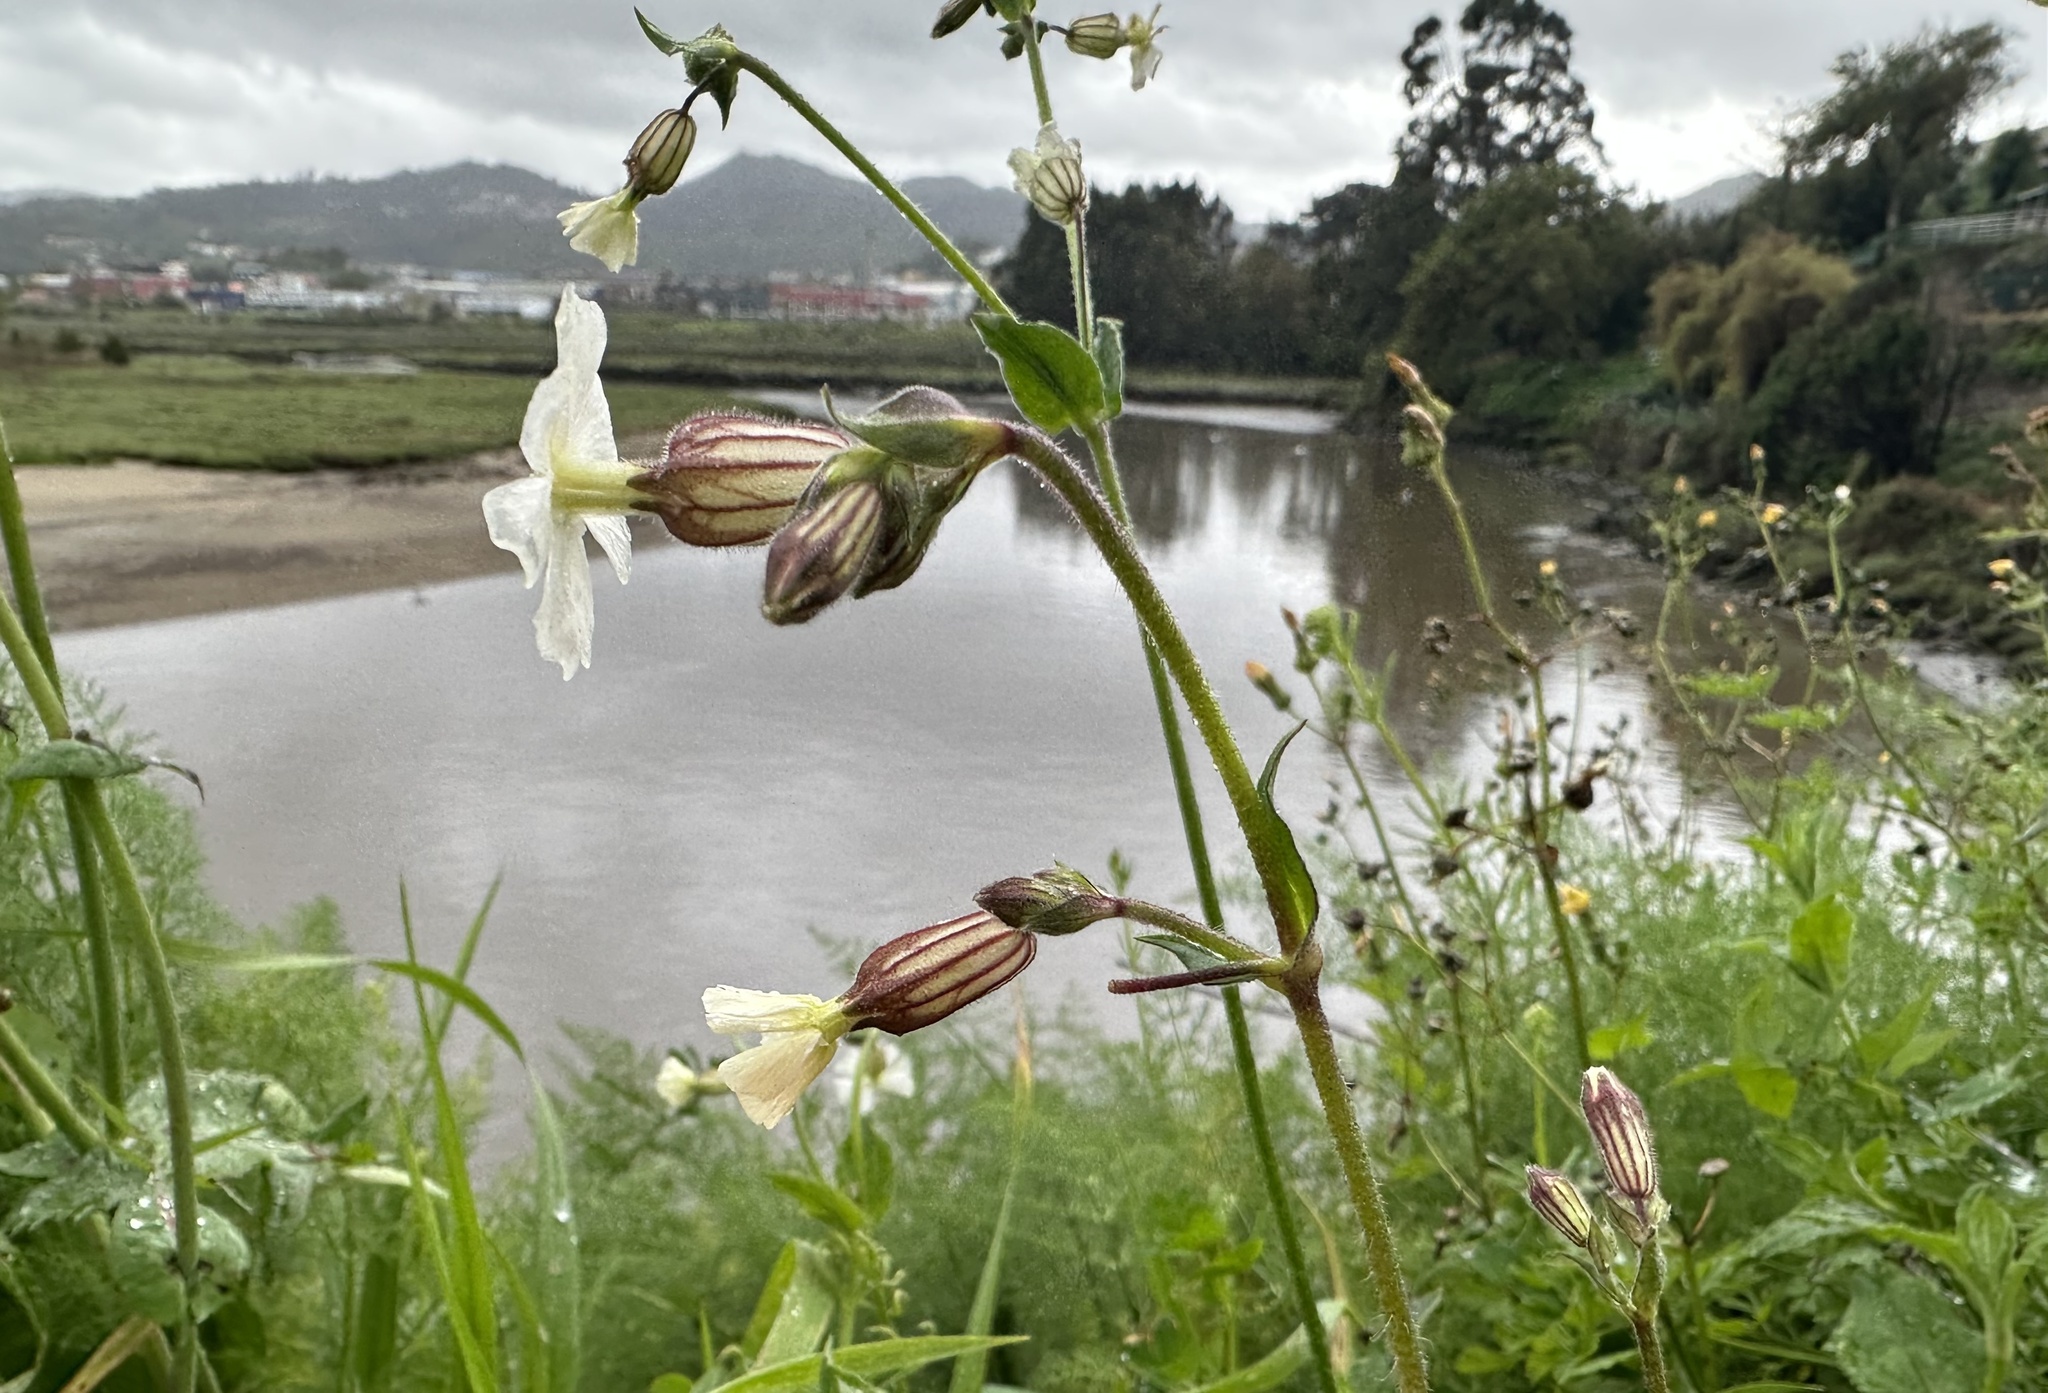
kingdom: Plantae
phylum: Tracheophyta
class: Magnoliopsida
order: Caryophyllales
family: Caryophyllaceae
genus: Silene
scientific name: Silene latifolia
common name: White campion
